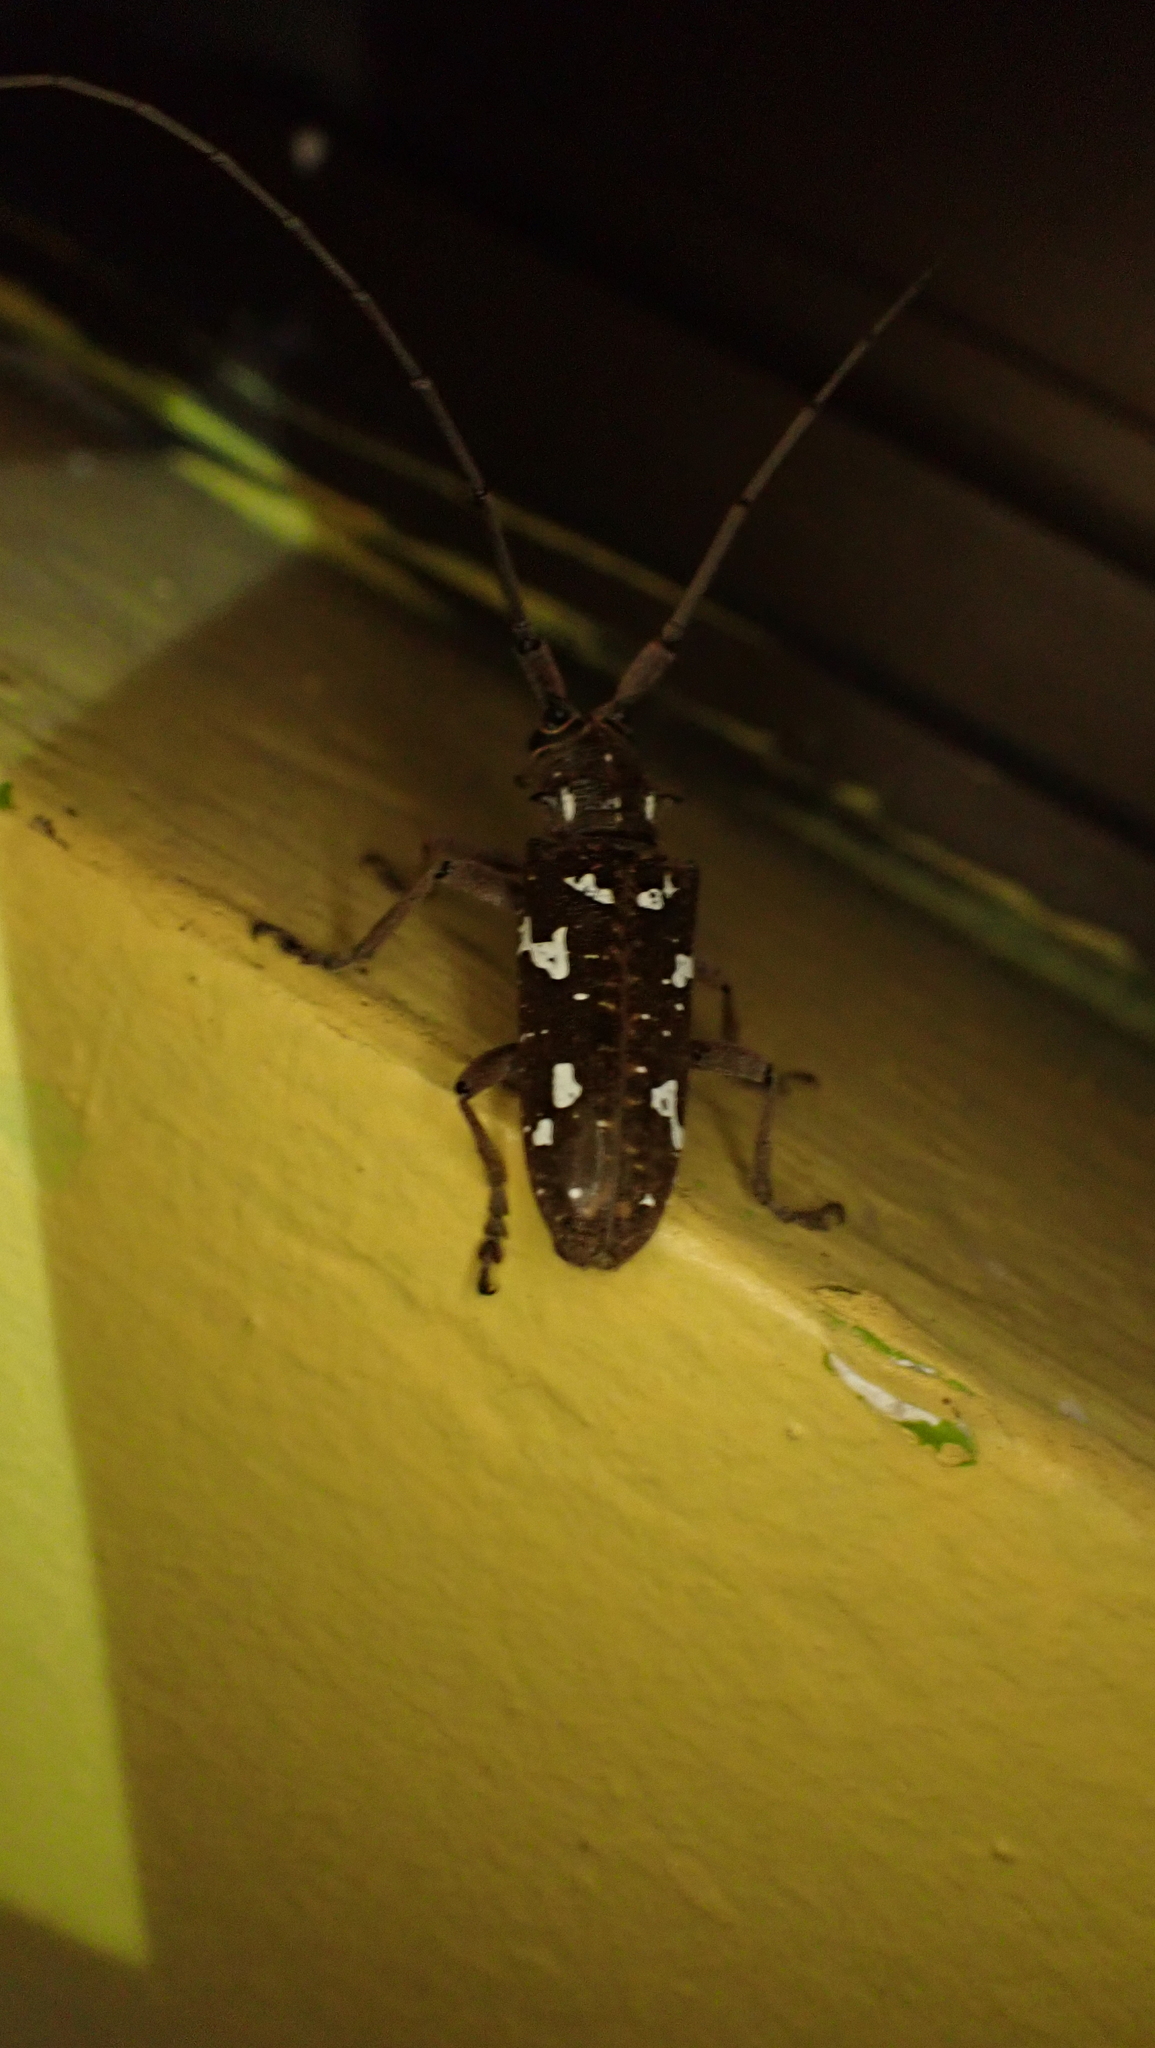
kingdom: Animalia
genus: Hammatoderus
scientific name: Hammatoderus thoracicus
